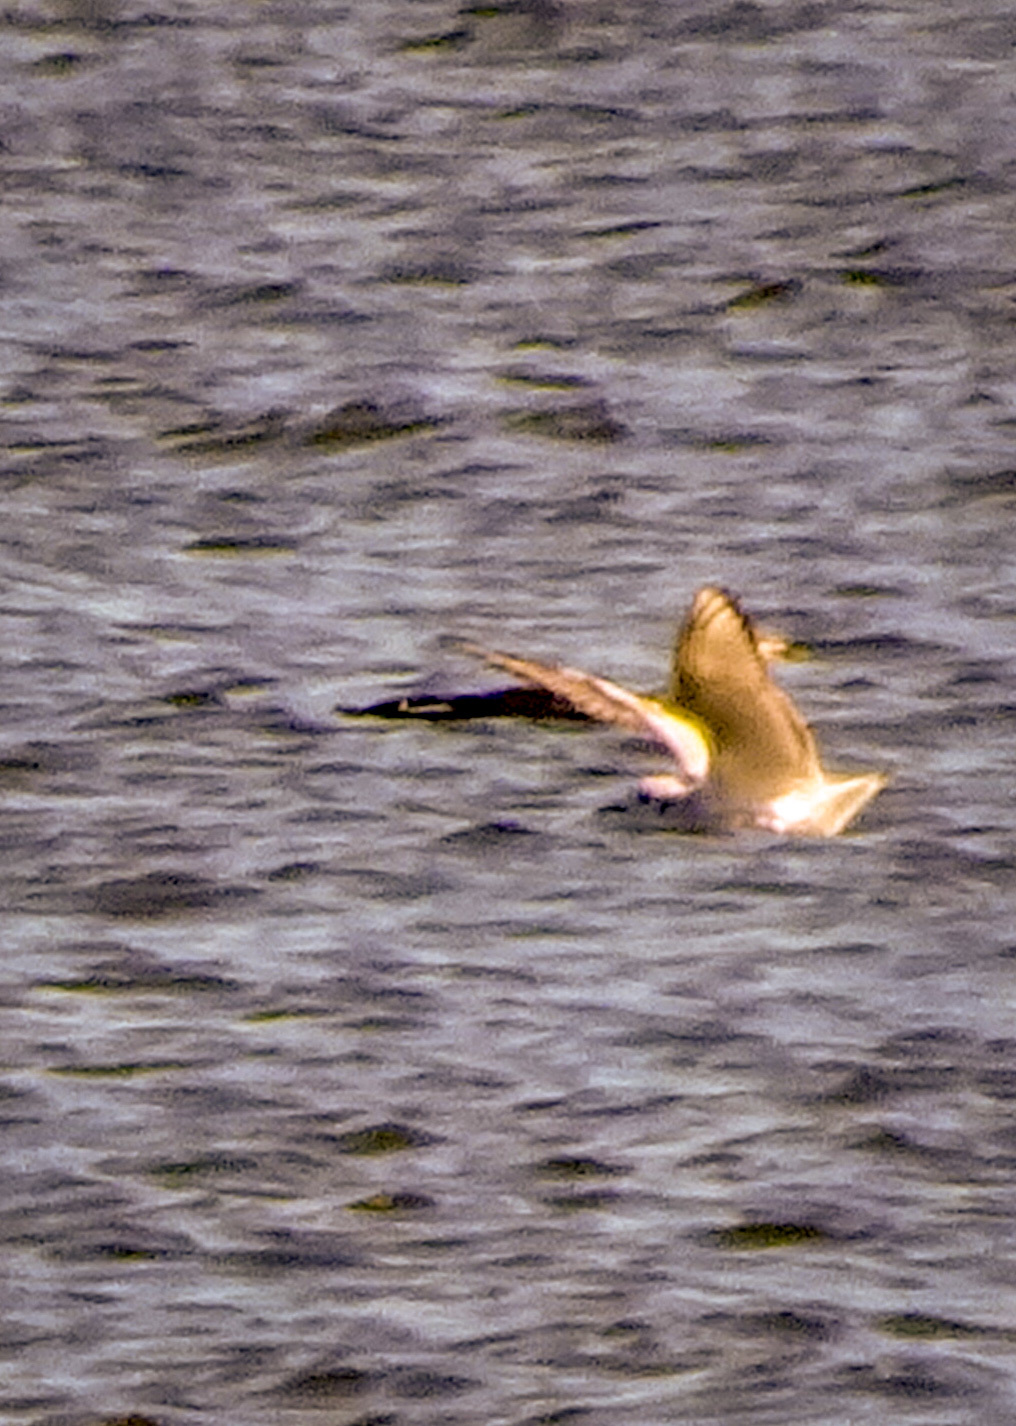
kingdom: Animalia
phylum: Chordata
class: Aves
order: Charadriiformes
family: Laridae
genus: Chroicocephalus
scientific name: Chroicocephalus philadelphia
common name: Bonaparte's gull
